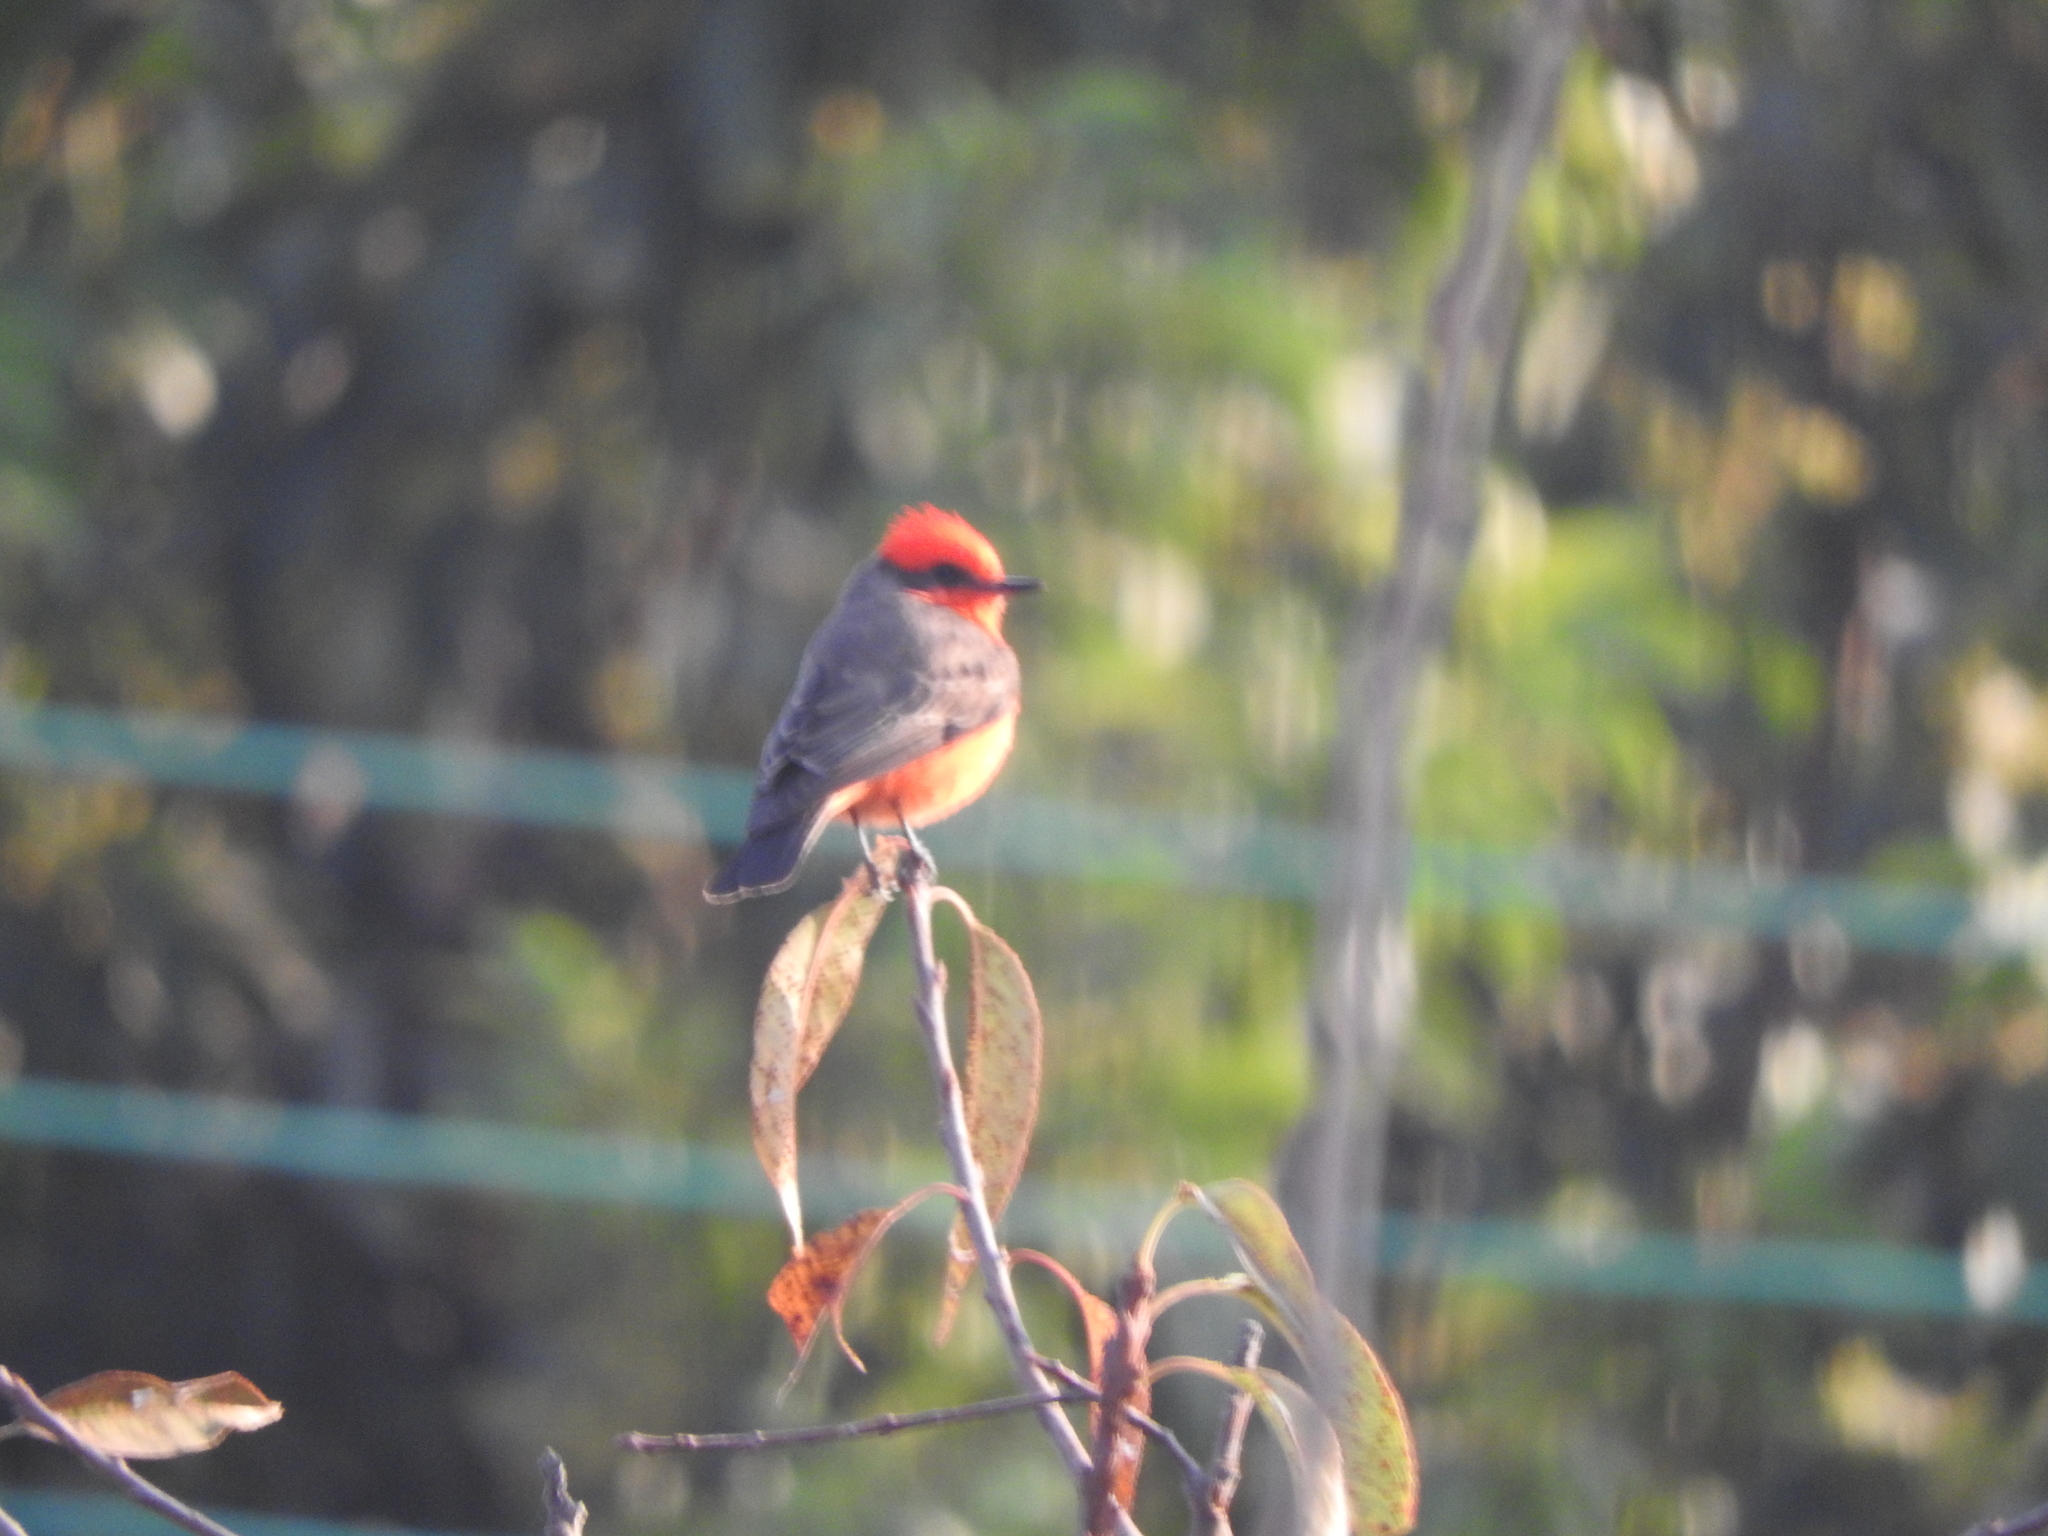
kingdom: Animalia
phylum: Chordata
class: Aves
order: Passeriformes
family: Tyrannidae
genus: Pyrocephalus
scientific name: Pyrocephalus rubinus
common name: Vermilion flycatcher
